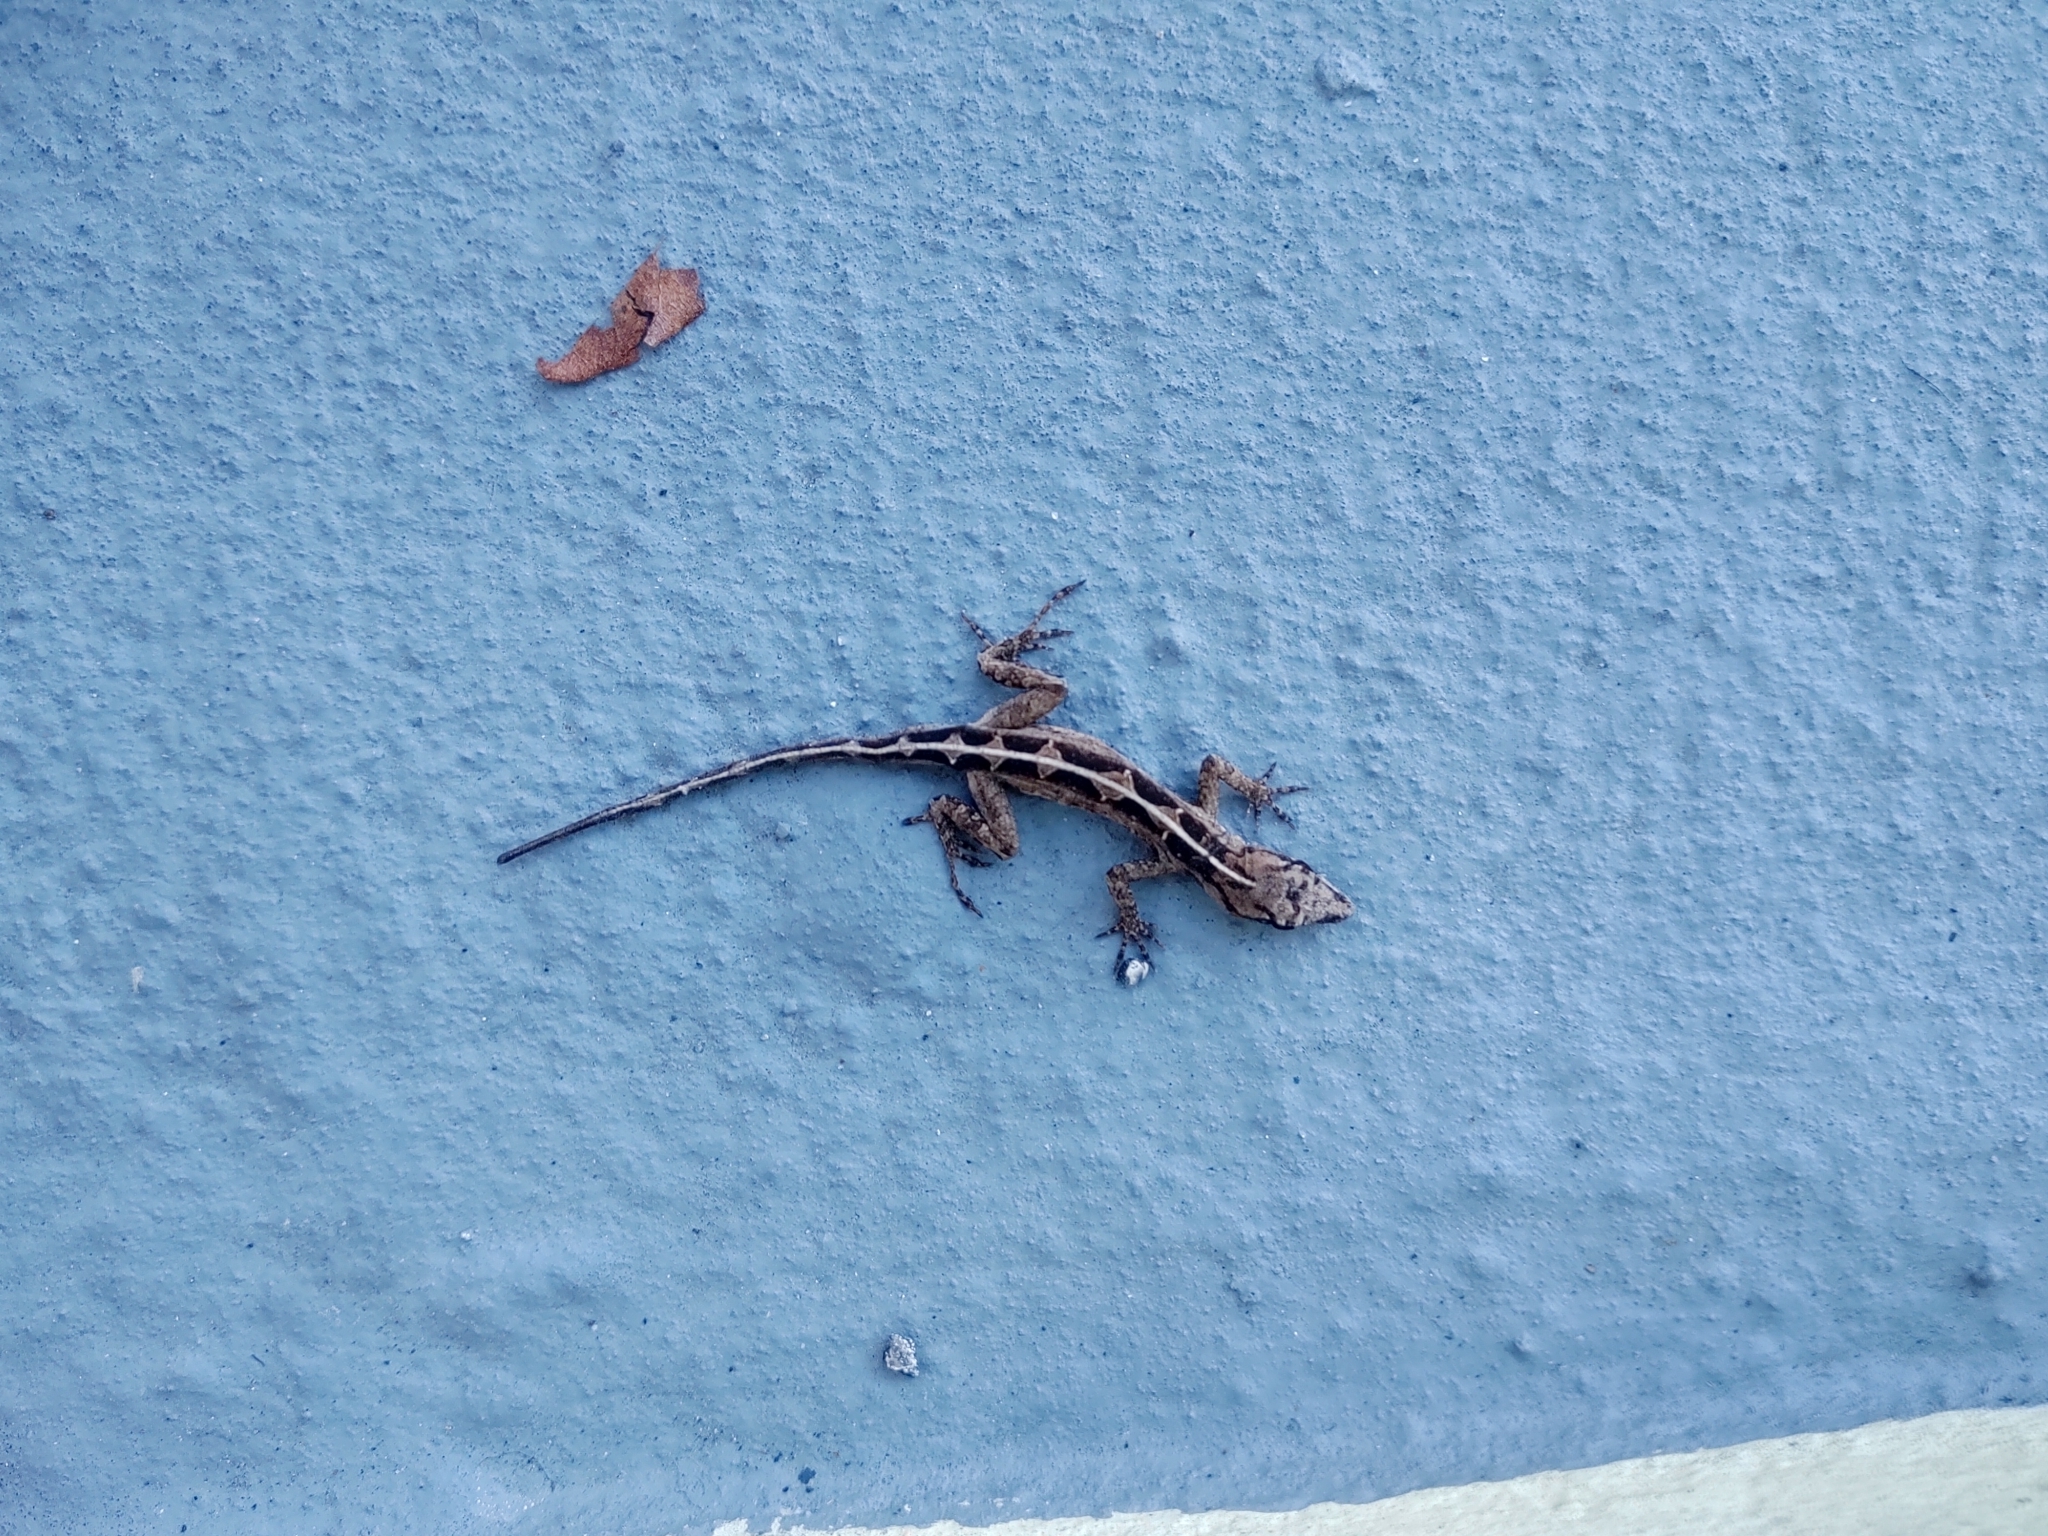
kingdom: Animalia
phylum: Chordata
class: Squamata
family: Dactyloidae
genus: Anolis
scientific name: Anolis sagrei
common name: Brown anole
